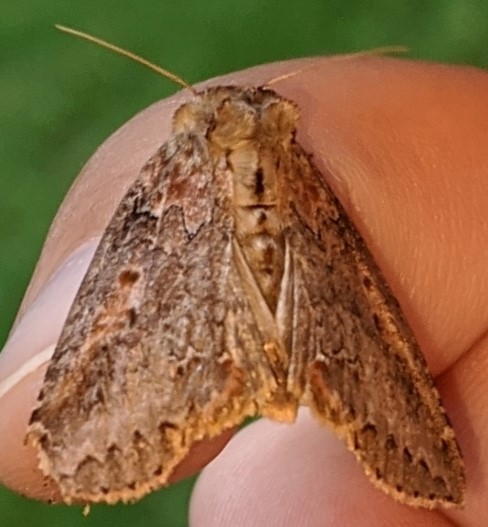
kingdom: Animalia
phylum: Arthropoda
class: Insecta
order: Lepidoptera
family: Drepanidae
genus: Pseudothyatira
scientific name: Pseudothyatira cymatophoroides
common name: Tufted thyatirid moth
